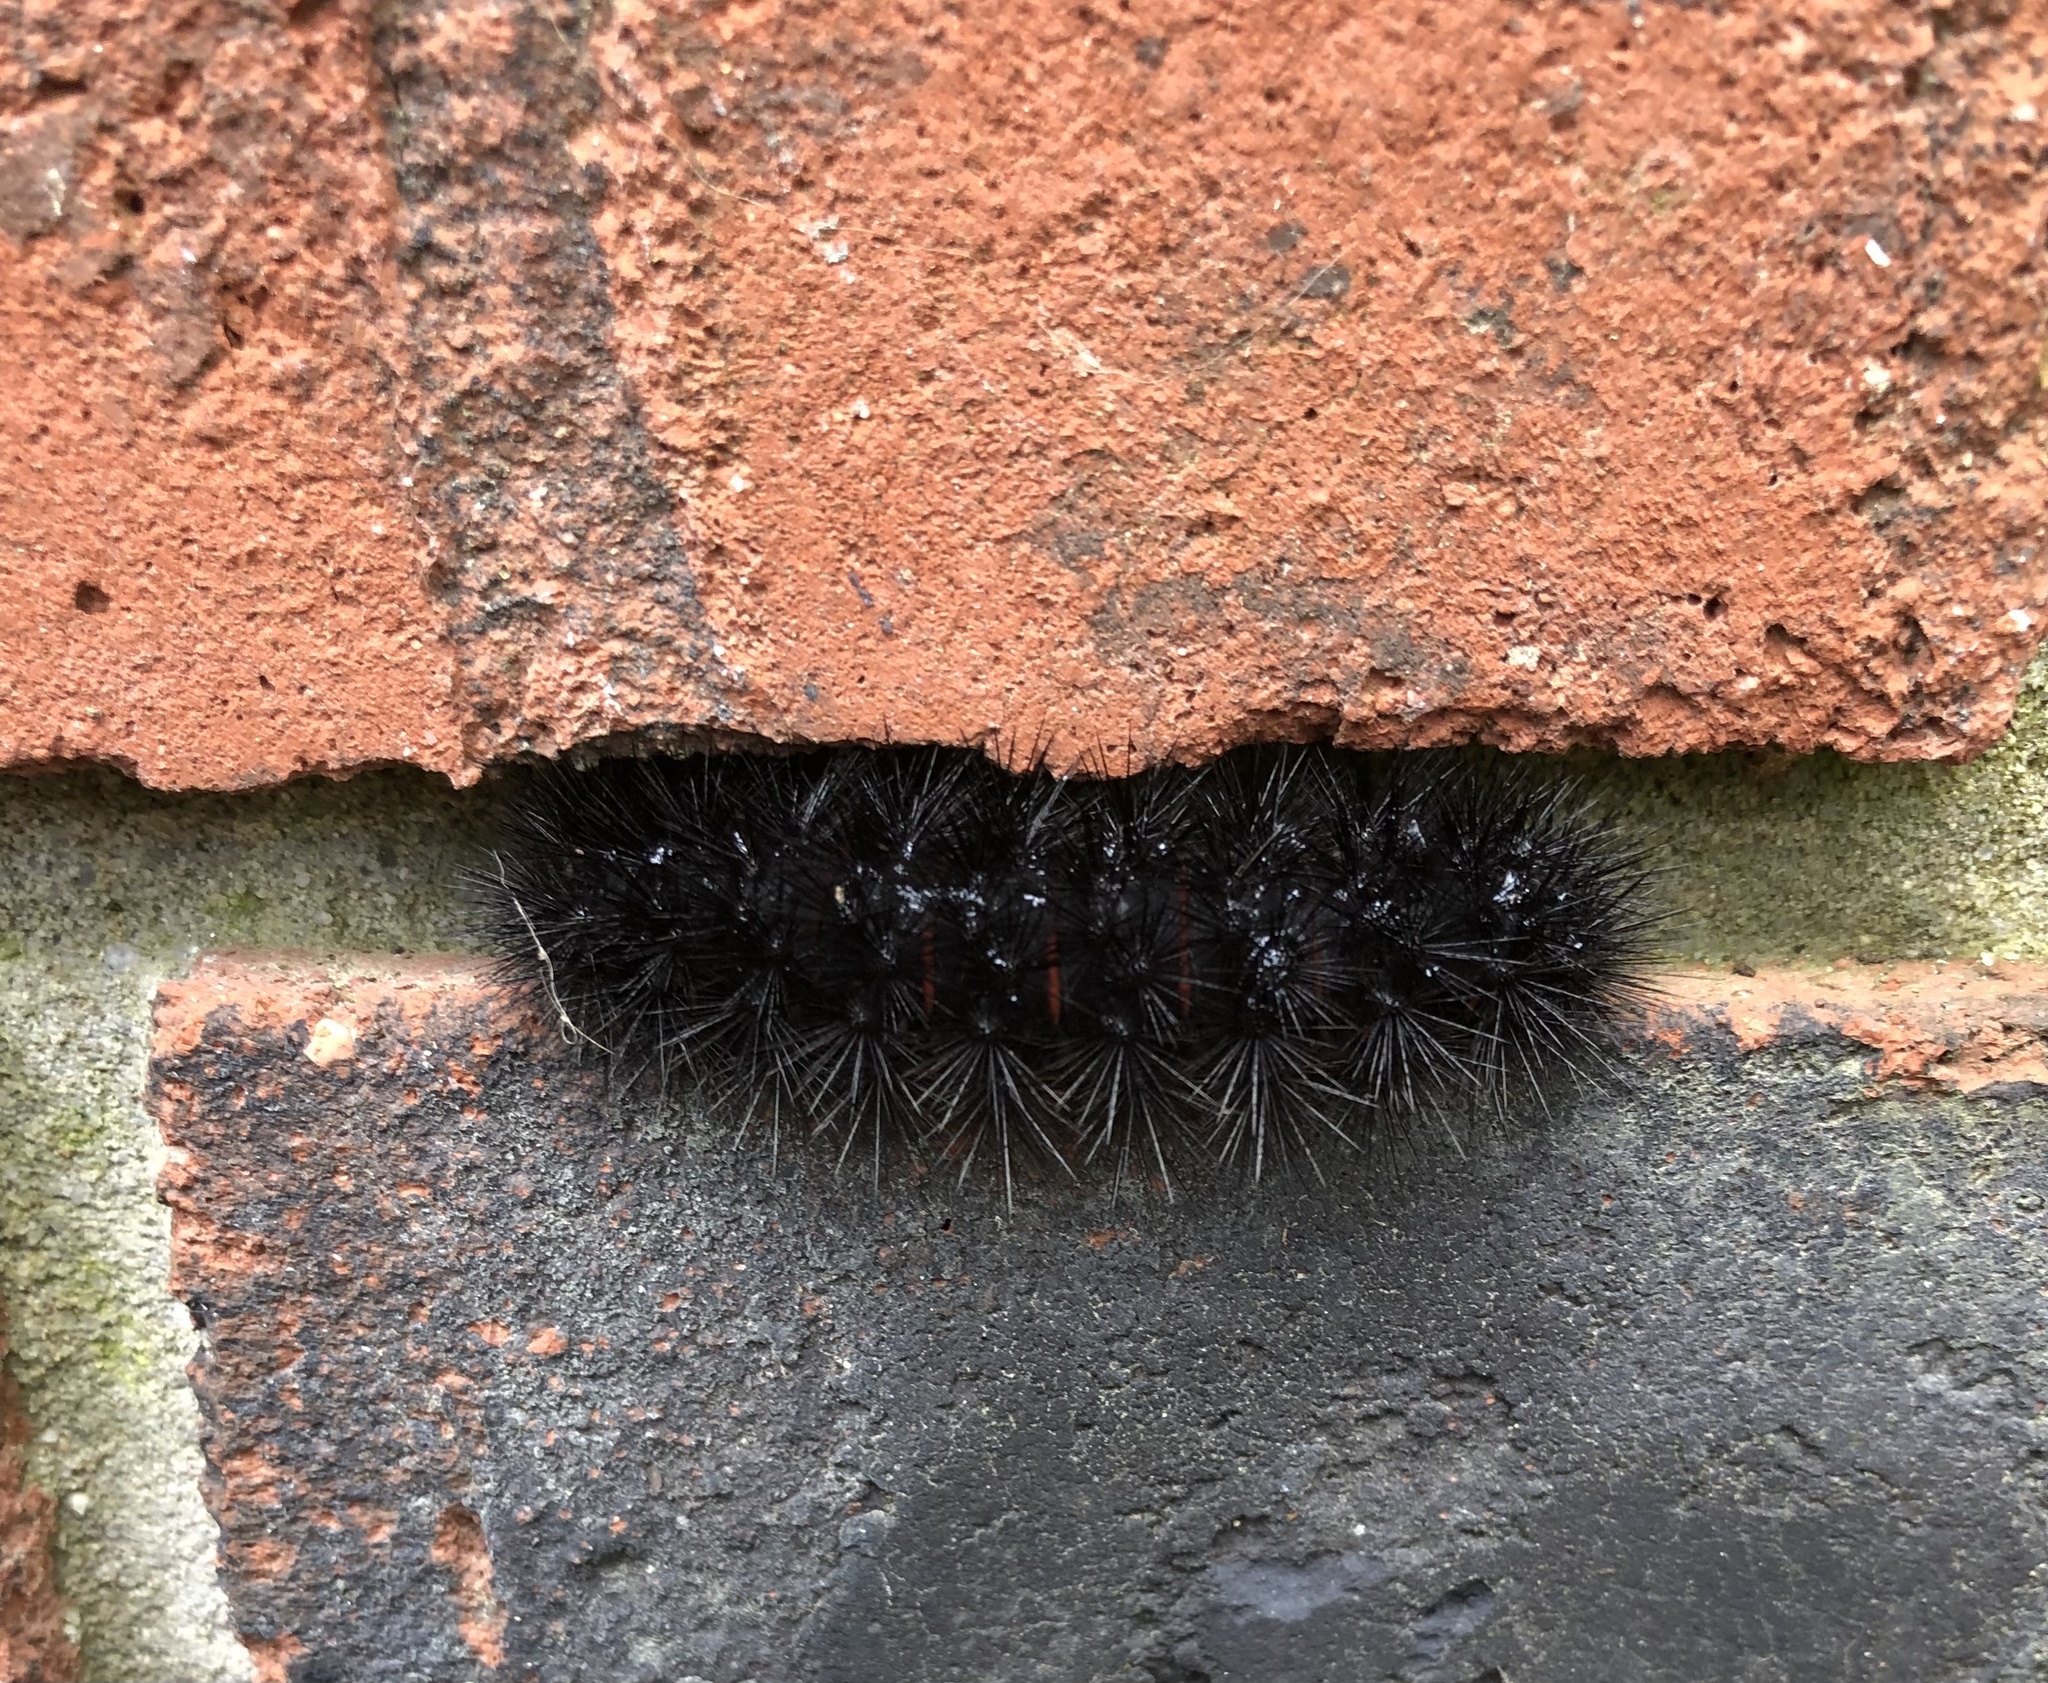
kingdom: Animalia
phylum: Arthropoda
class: Insecta
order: Lepidoptera
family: Erebidae
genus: Hypercompe
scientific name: Hypercompe scribonia
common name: Giant leopard moth
